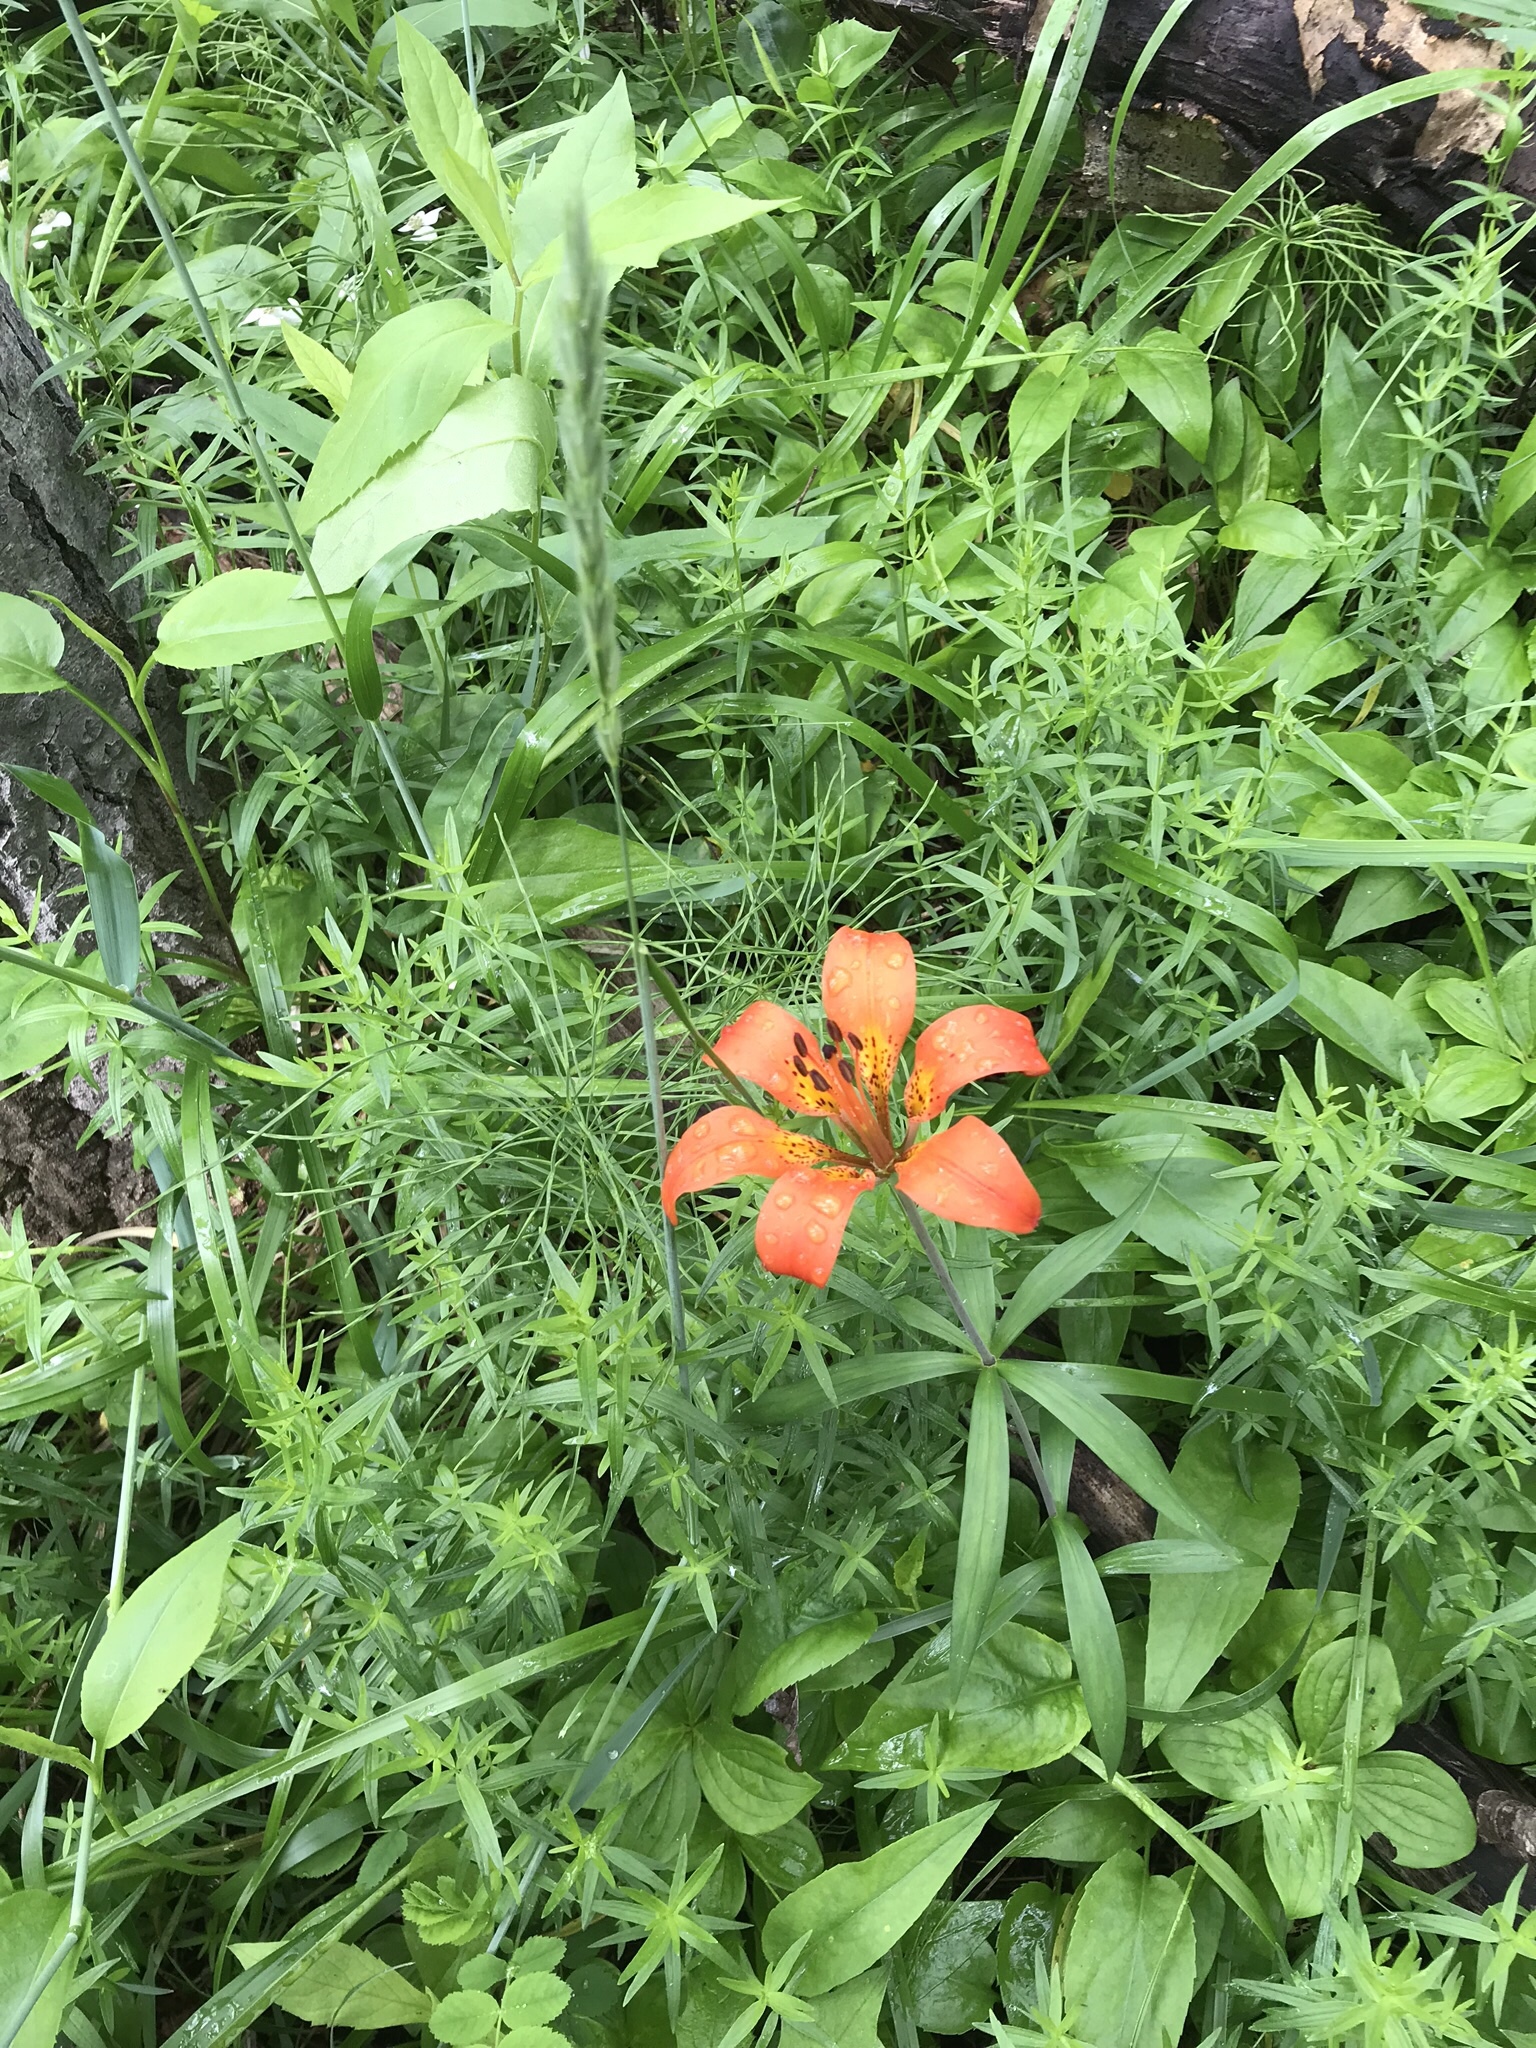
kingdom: Plantae
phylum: Tracheophyta
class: Liliopsida
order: Liliales
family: Liliaceae
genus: Lilium
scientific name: Lilium philadelphicum
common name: Red lily
